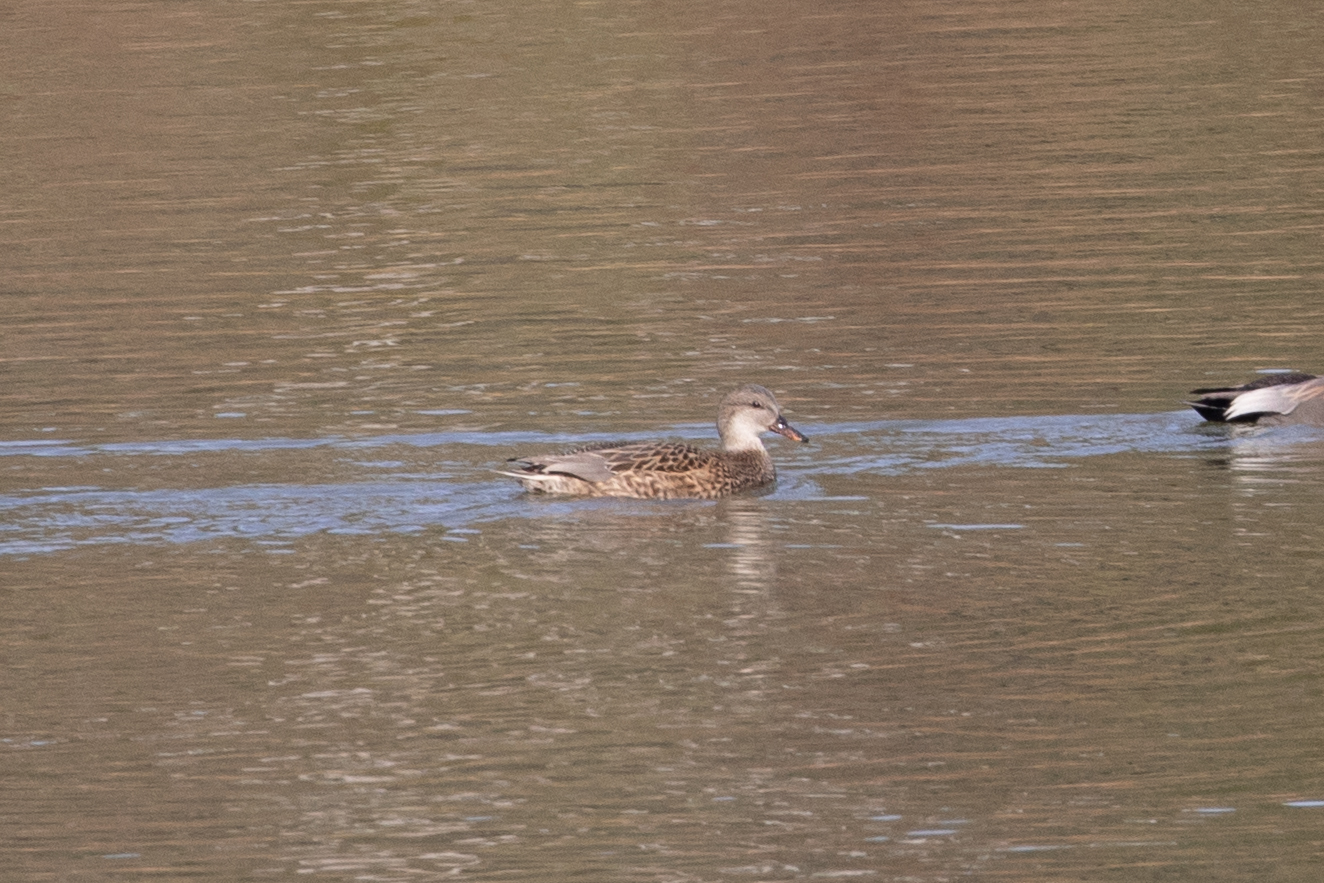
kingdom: Animalia
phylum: Chordata
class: Aves
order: Anseriformes
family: Anatidae
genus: Mareca
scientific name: Mareca strepera
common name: Gadwall
